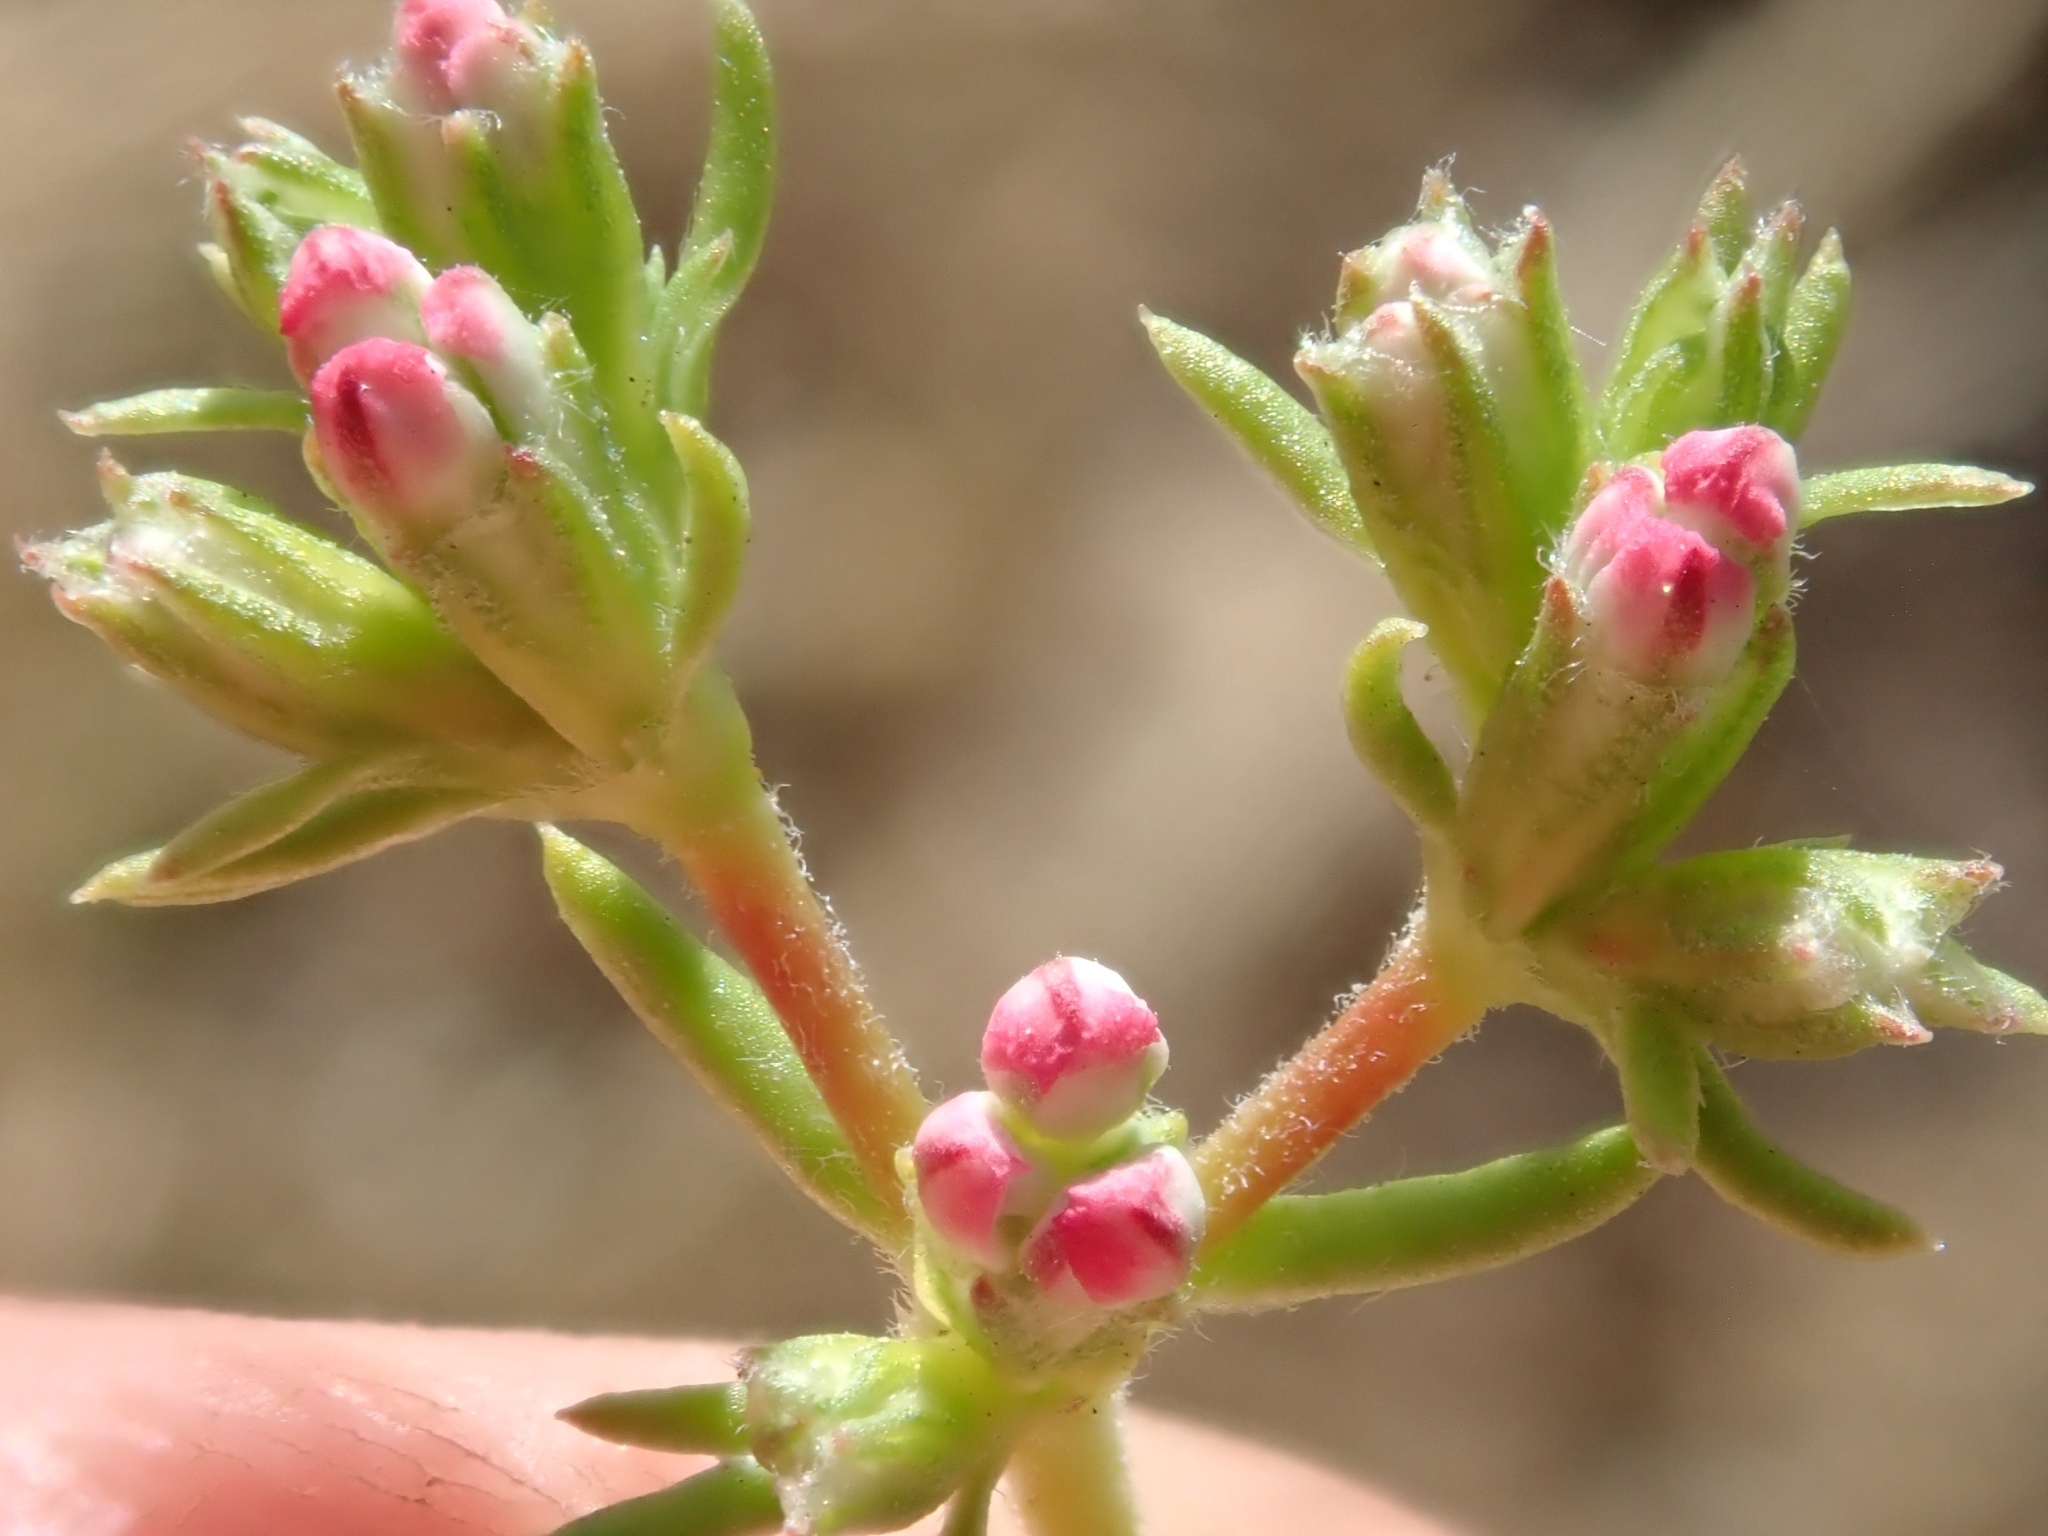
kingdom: Plantae
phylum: Tracheophyta
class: Magnoliopsida
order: Caryophyllales
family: Polygonaceae
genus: Eriogonum
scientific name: Eriogonum fasciculatum
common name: California wild buckwheat
